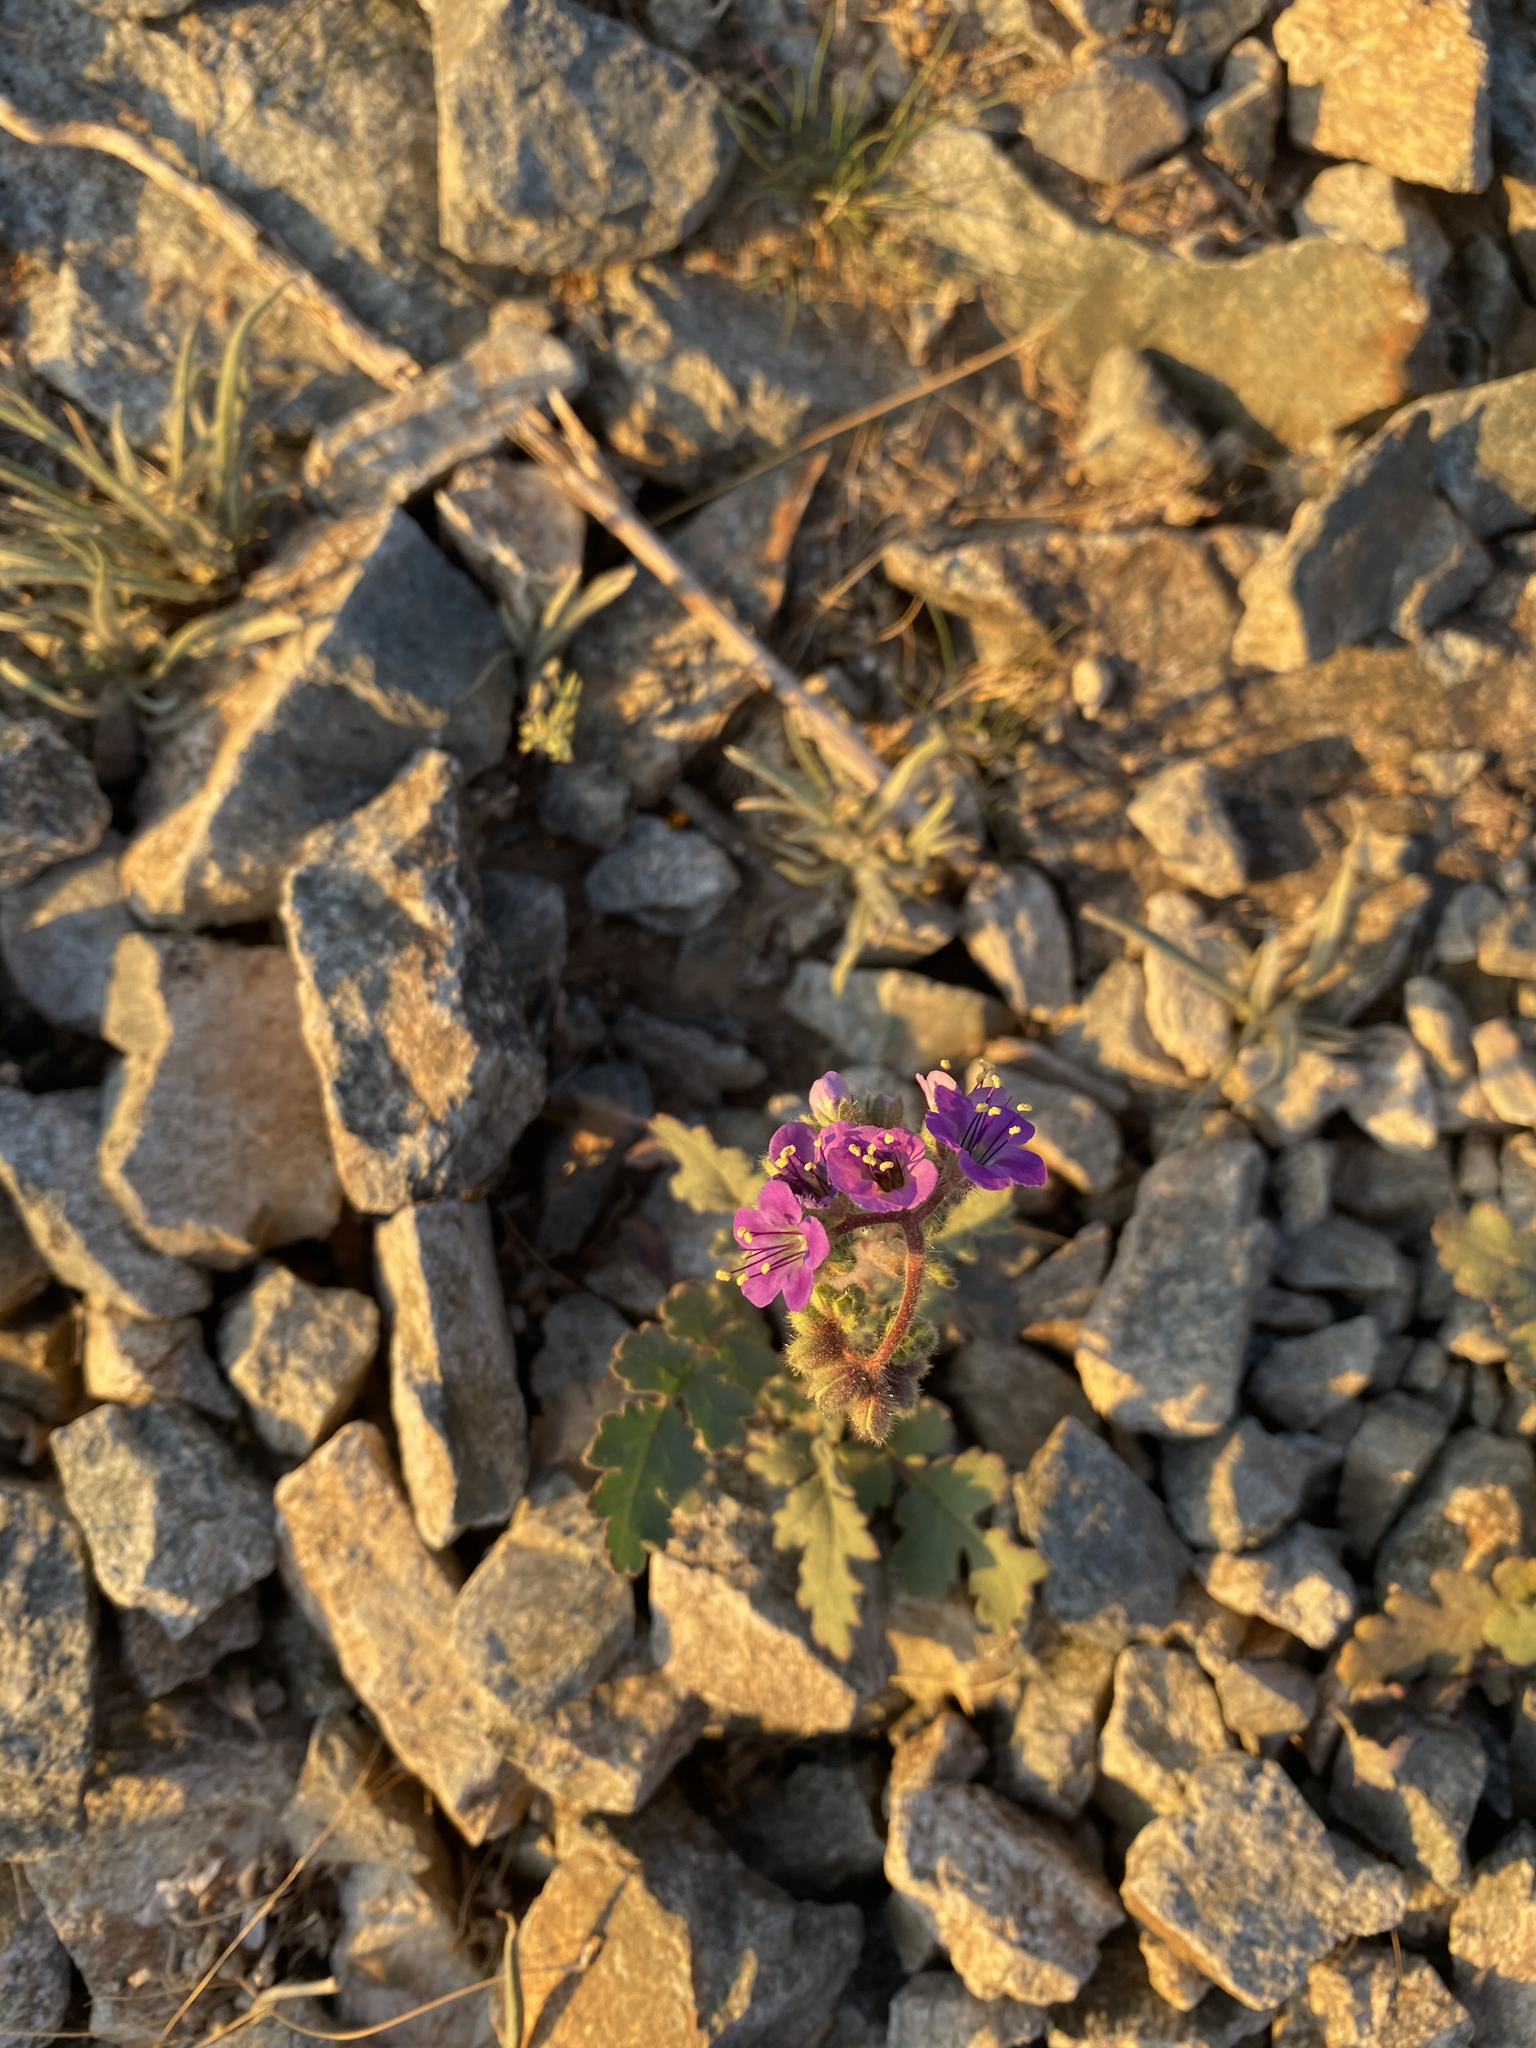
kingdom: Plantae
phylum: Tracheophyta
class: Magnoliopsida
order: Boraginales
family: Hydrophyllaceae
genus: Phacelia
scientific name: Phacelia crenulata
